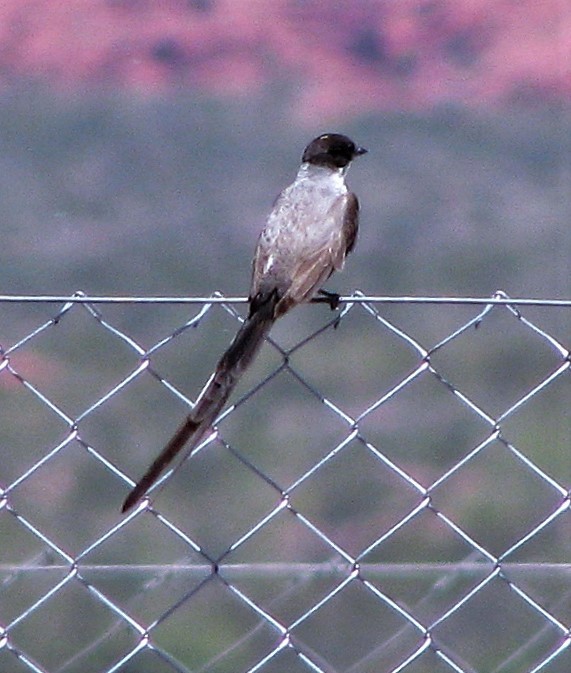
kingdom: Animalia
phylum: Chordata
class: Aves
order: Passeriformes
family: Tyrannidae
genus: Tyrannus
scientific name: Tyrannus savana
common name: Fork-tailed flycatcher
